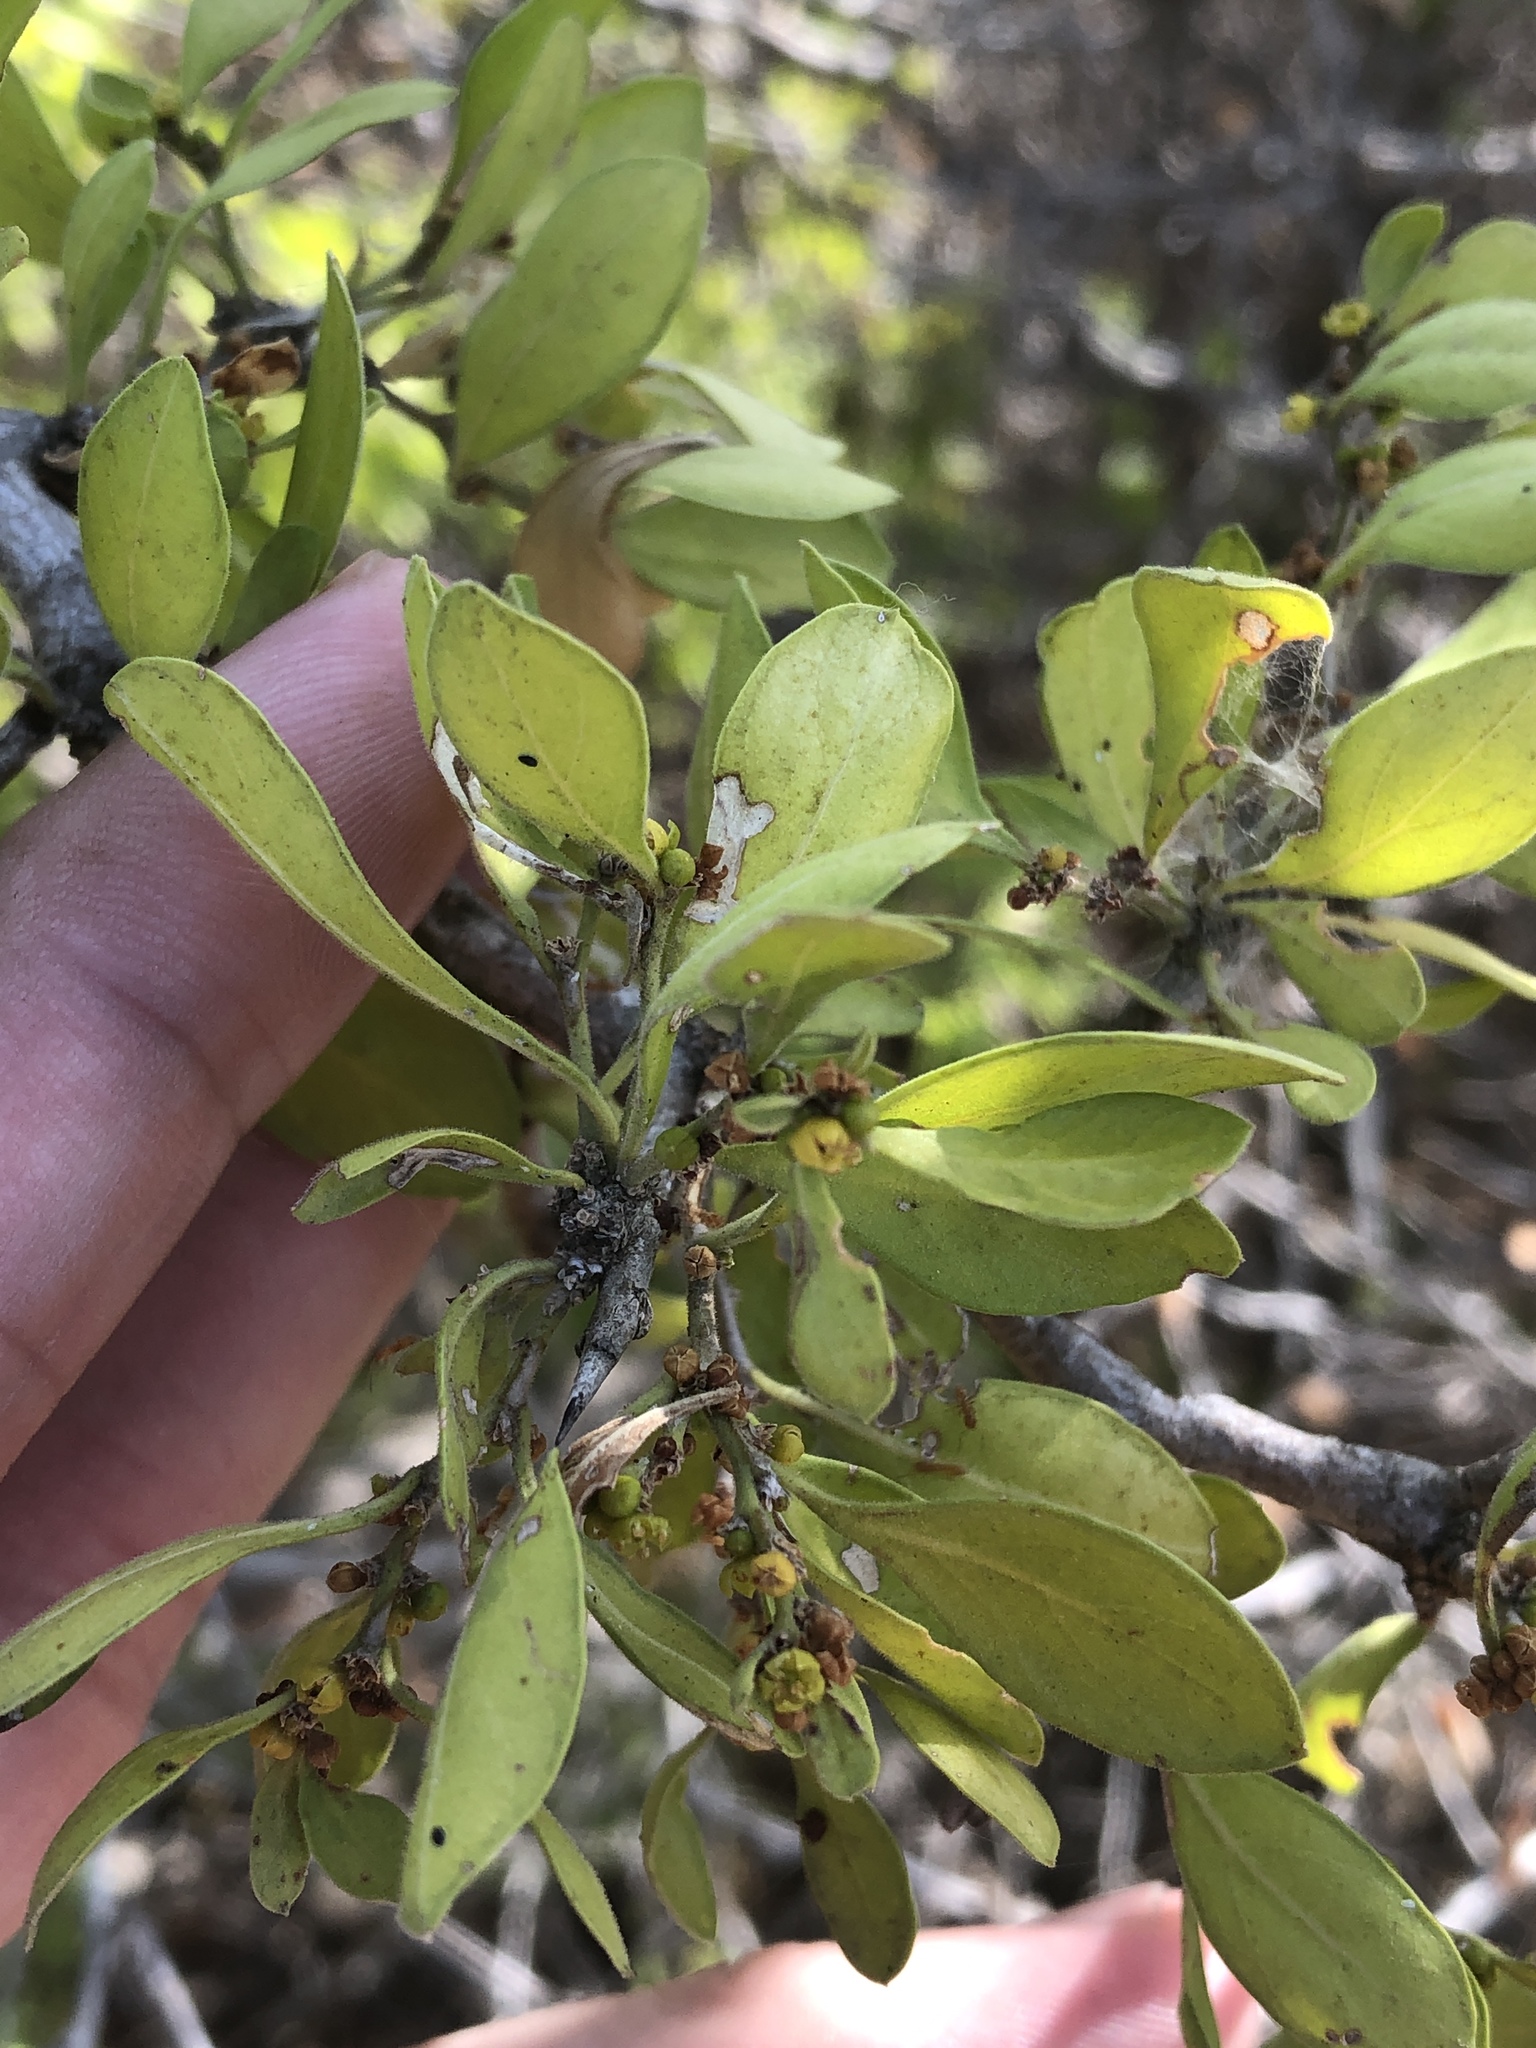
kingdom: Plantae
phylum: Tracheophyta
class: Magnoliopsida
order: Rosales
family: Rhamnaceae
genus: Condalia
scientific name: Condalia hookeri
